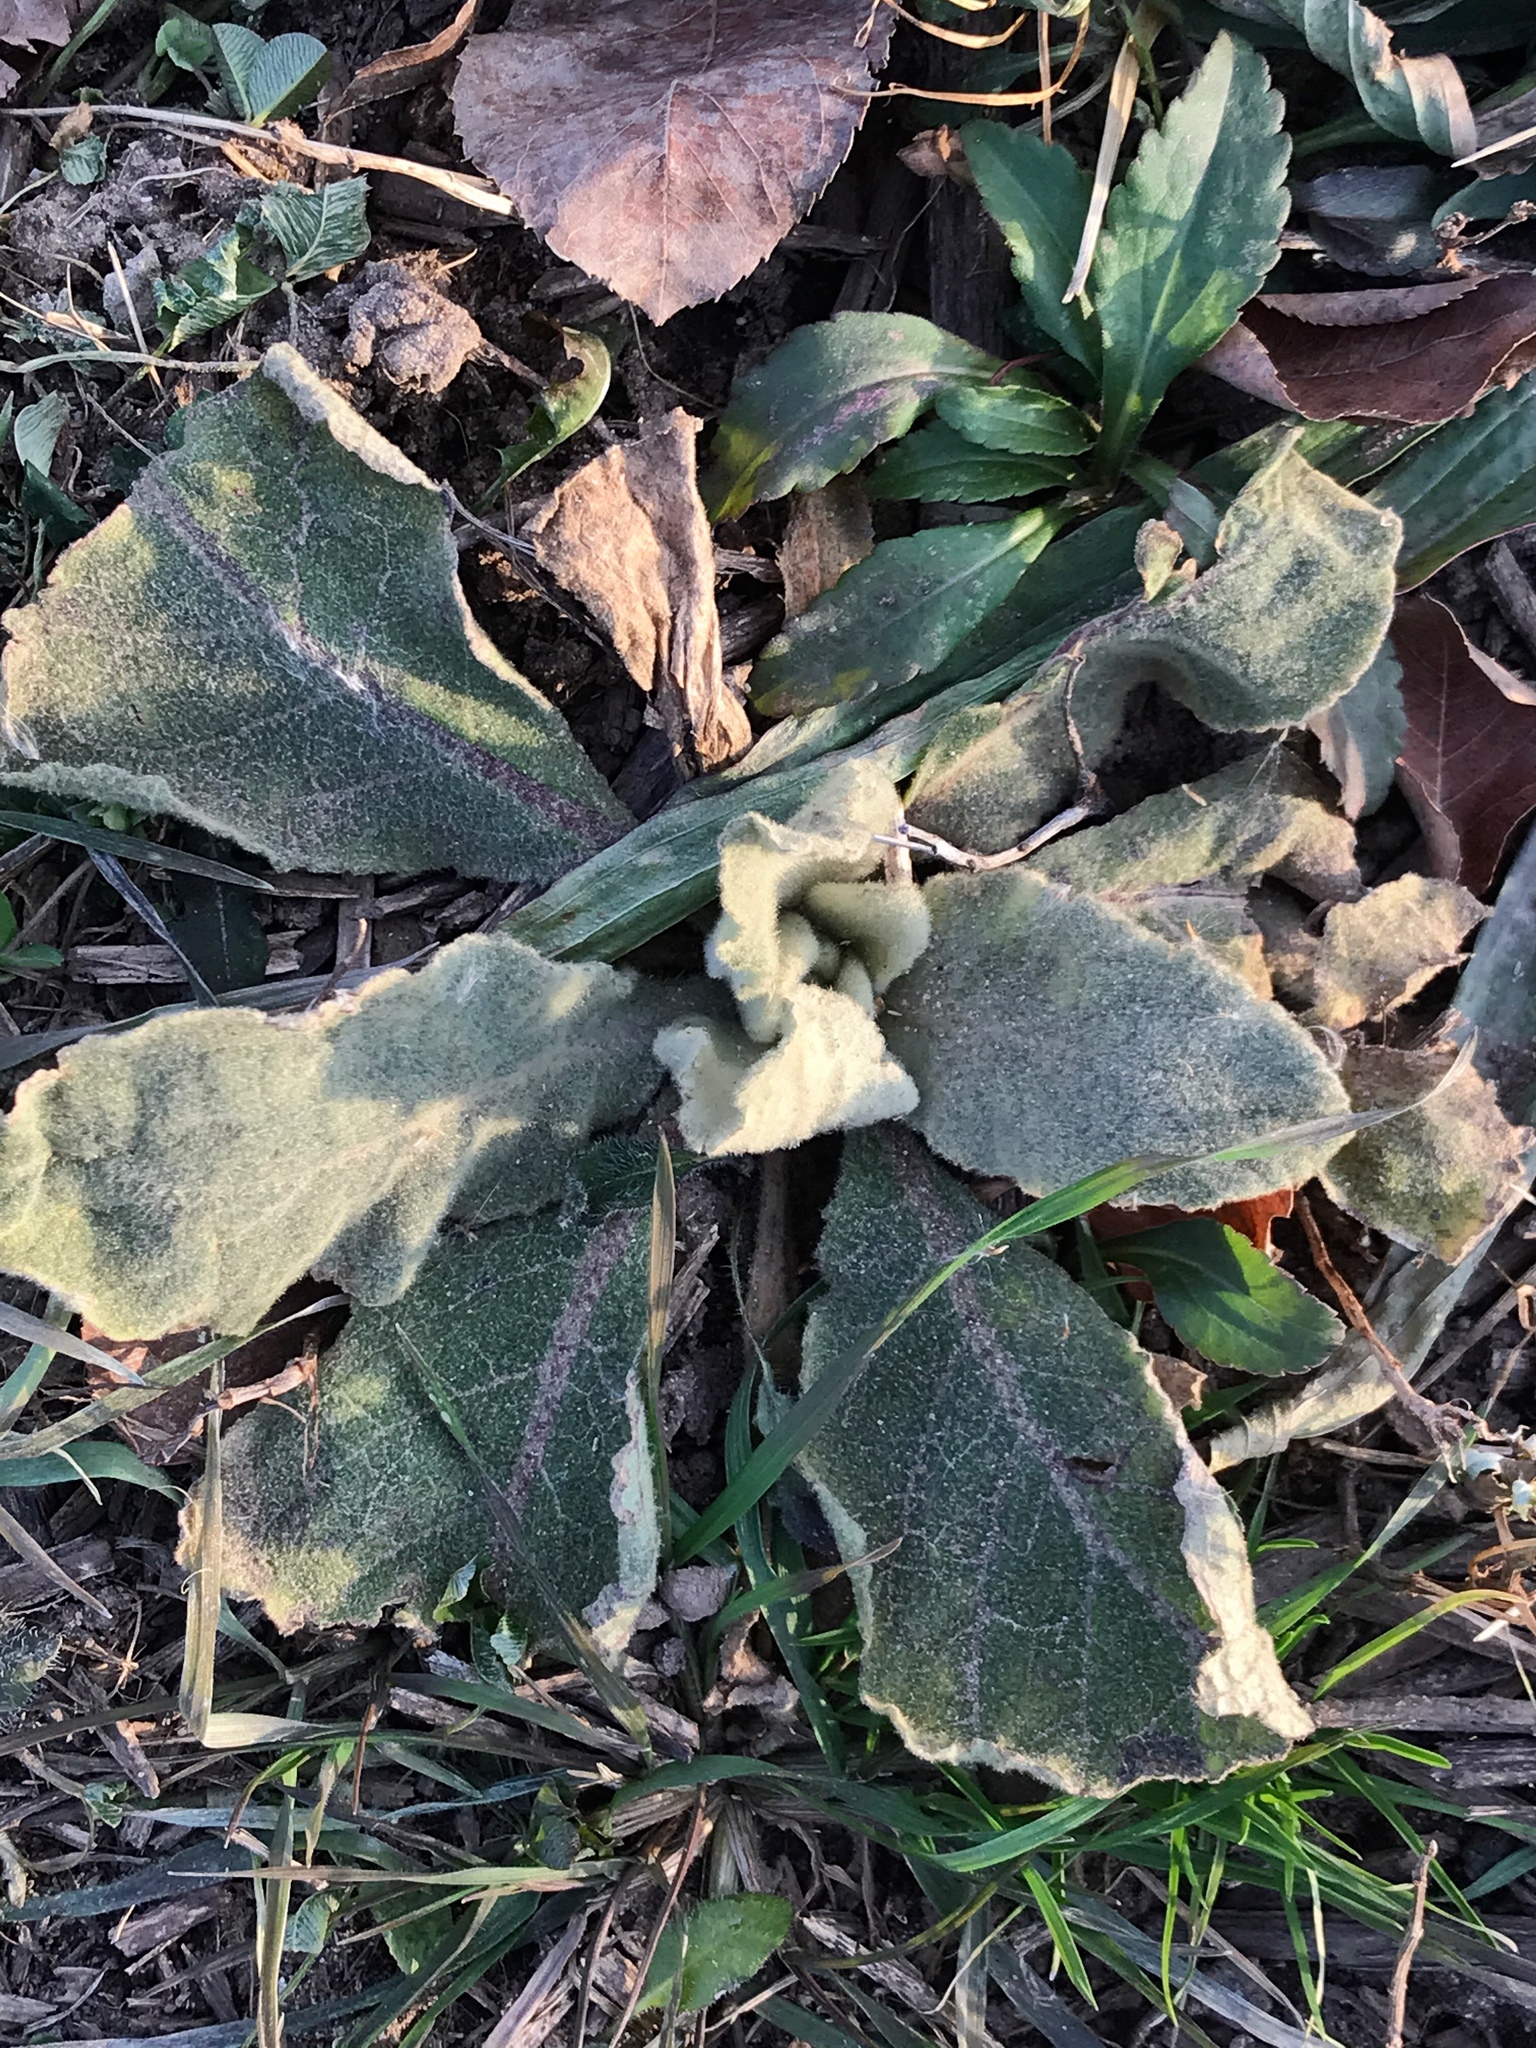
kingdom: Plantae
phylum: Tracheophyta
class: Magnoliopsida
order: Lamiales
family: Scrophulariaceae
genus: Verbascum
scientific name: Verbascum thapsus
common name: Common mullein
